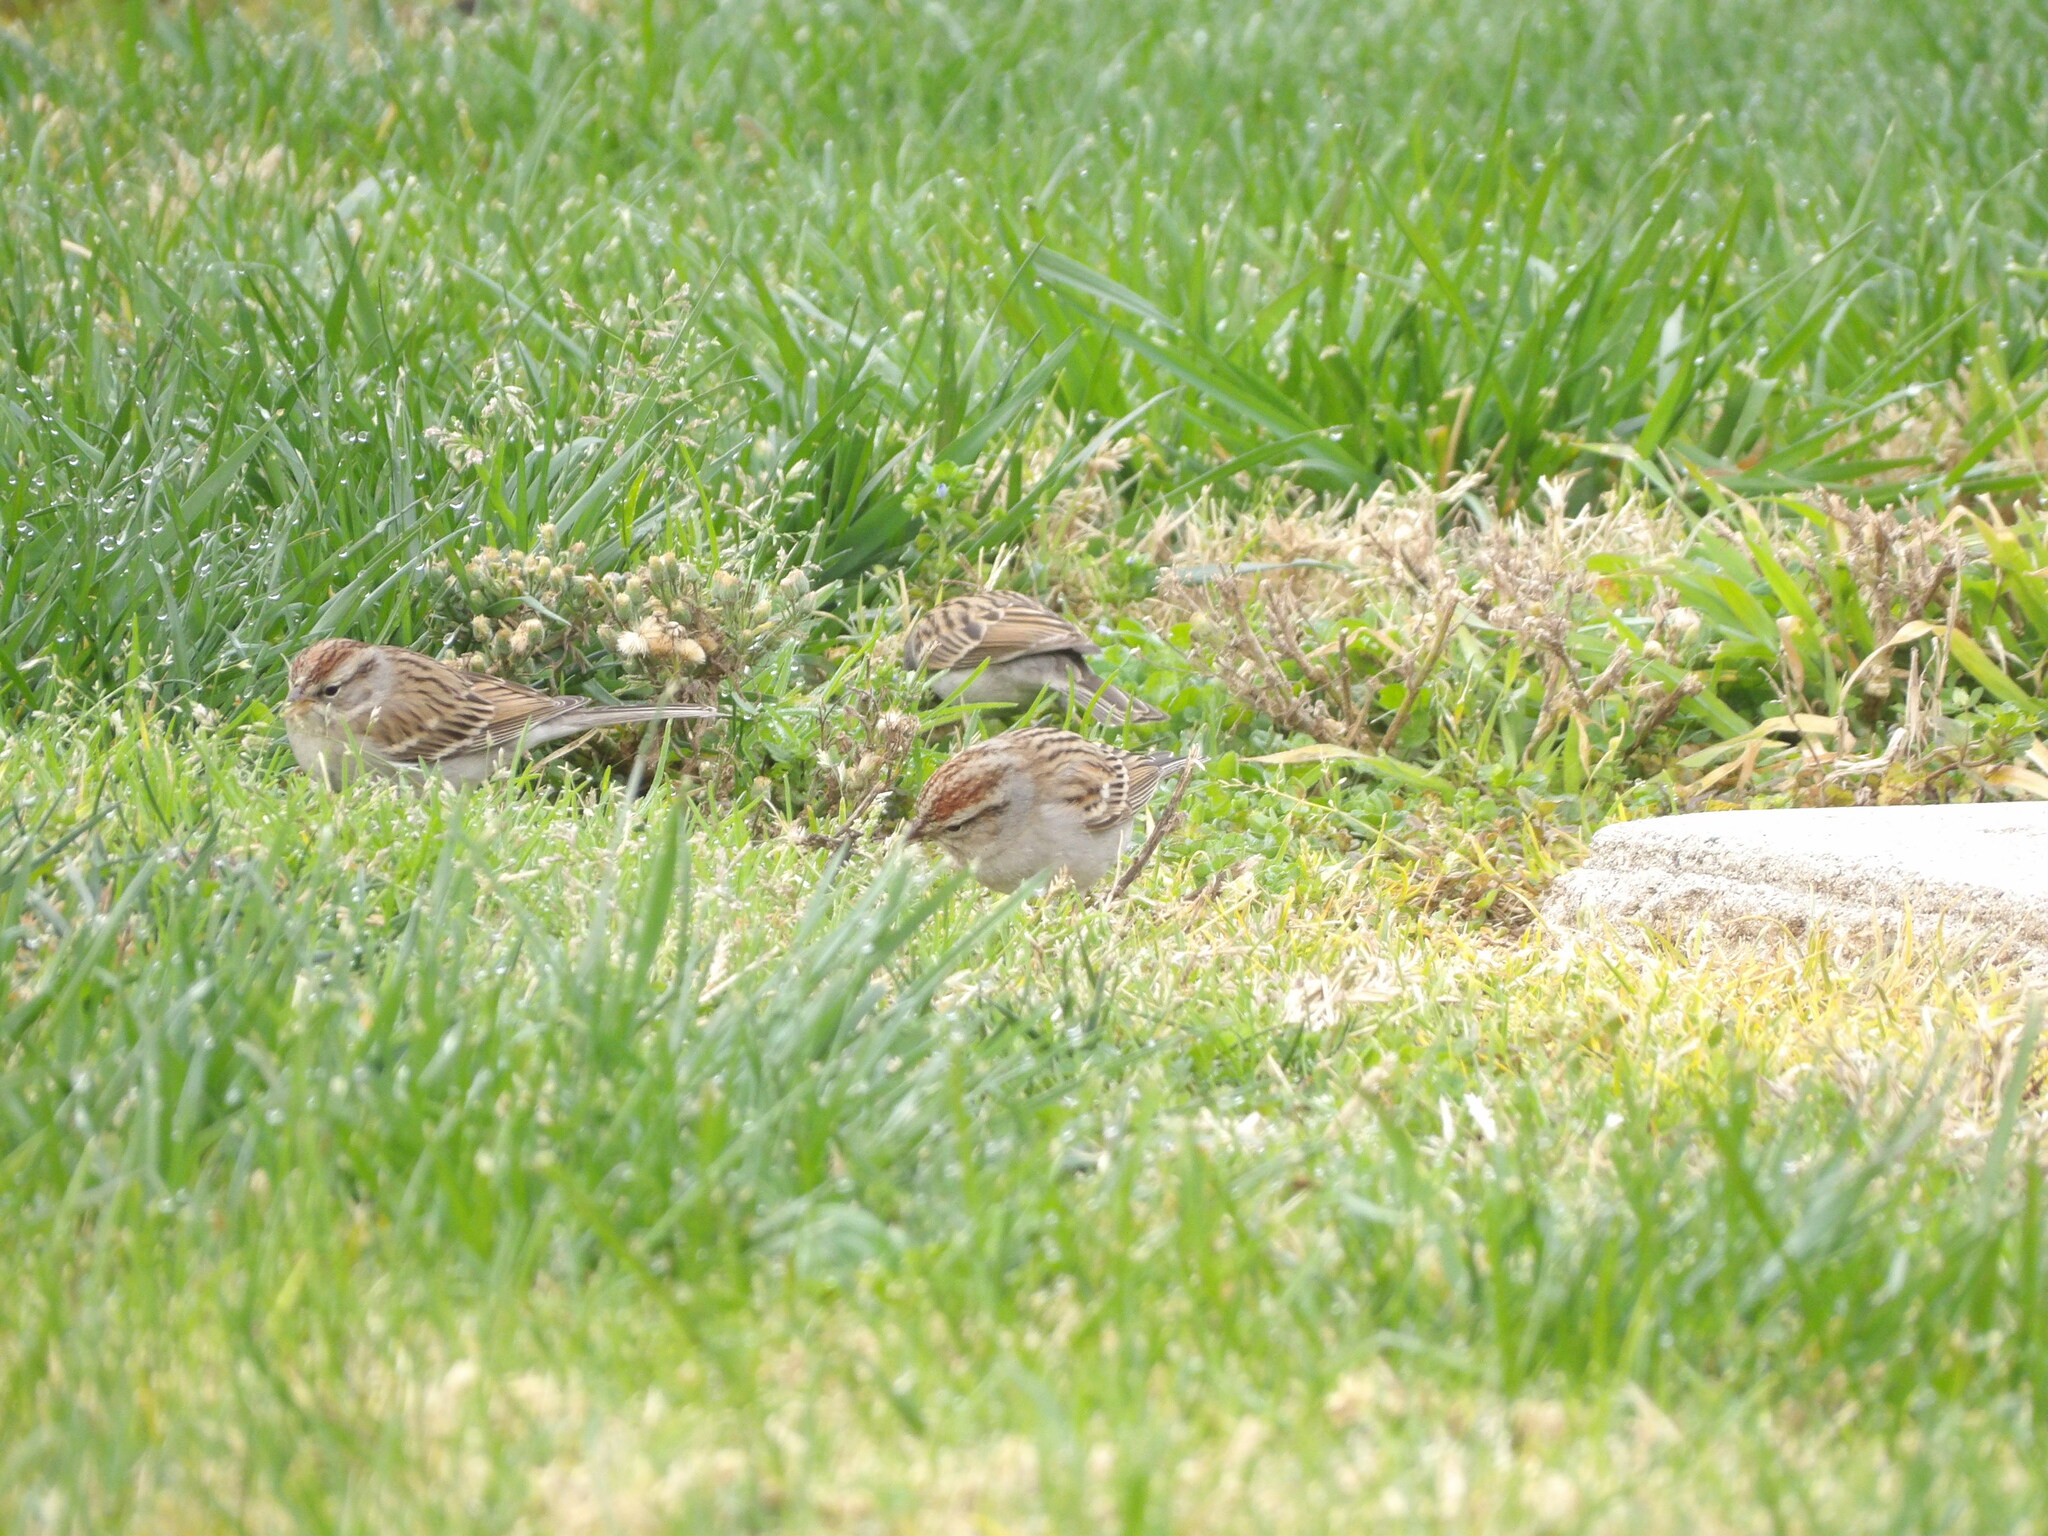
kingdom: Animalia
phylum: Chordata
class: Aves
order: Passeriformes
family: Passerellidae
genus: Spizella
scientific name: Spizella passerina
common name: Chipping sparrow
